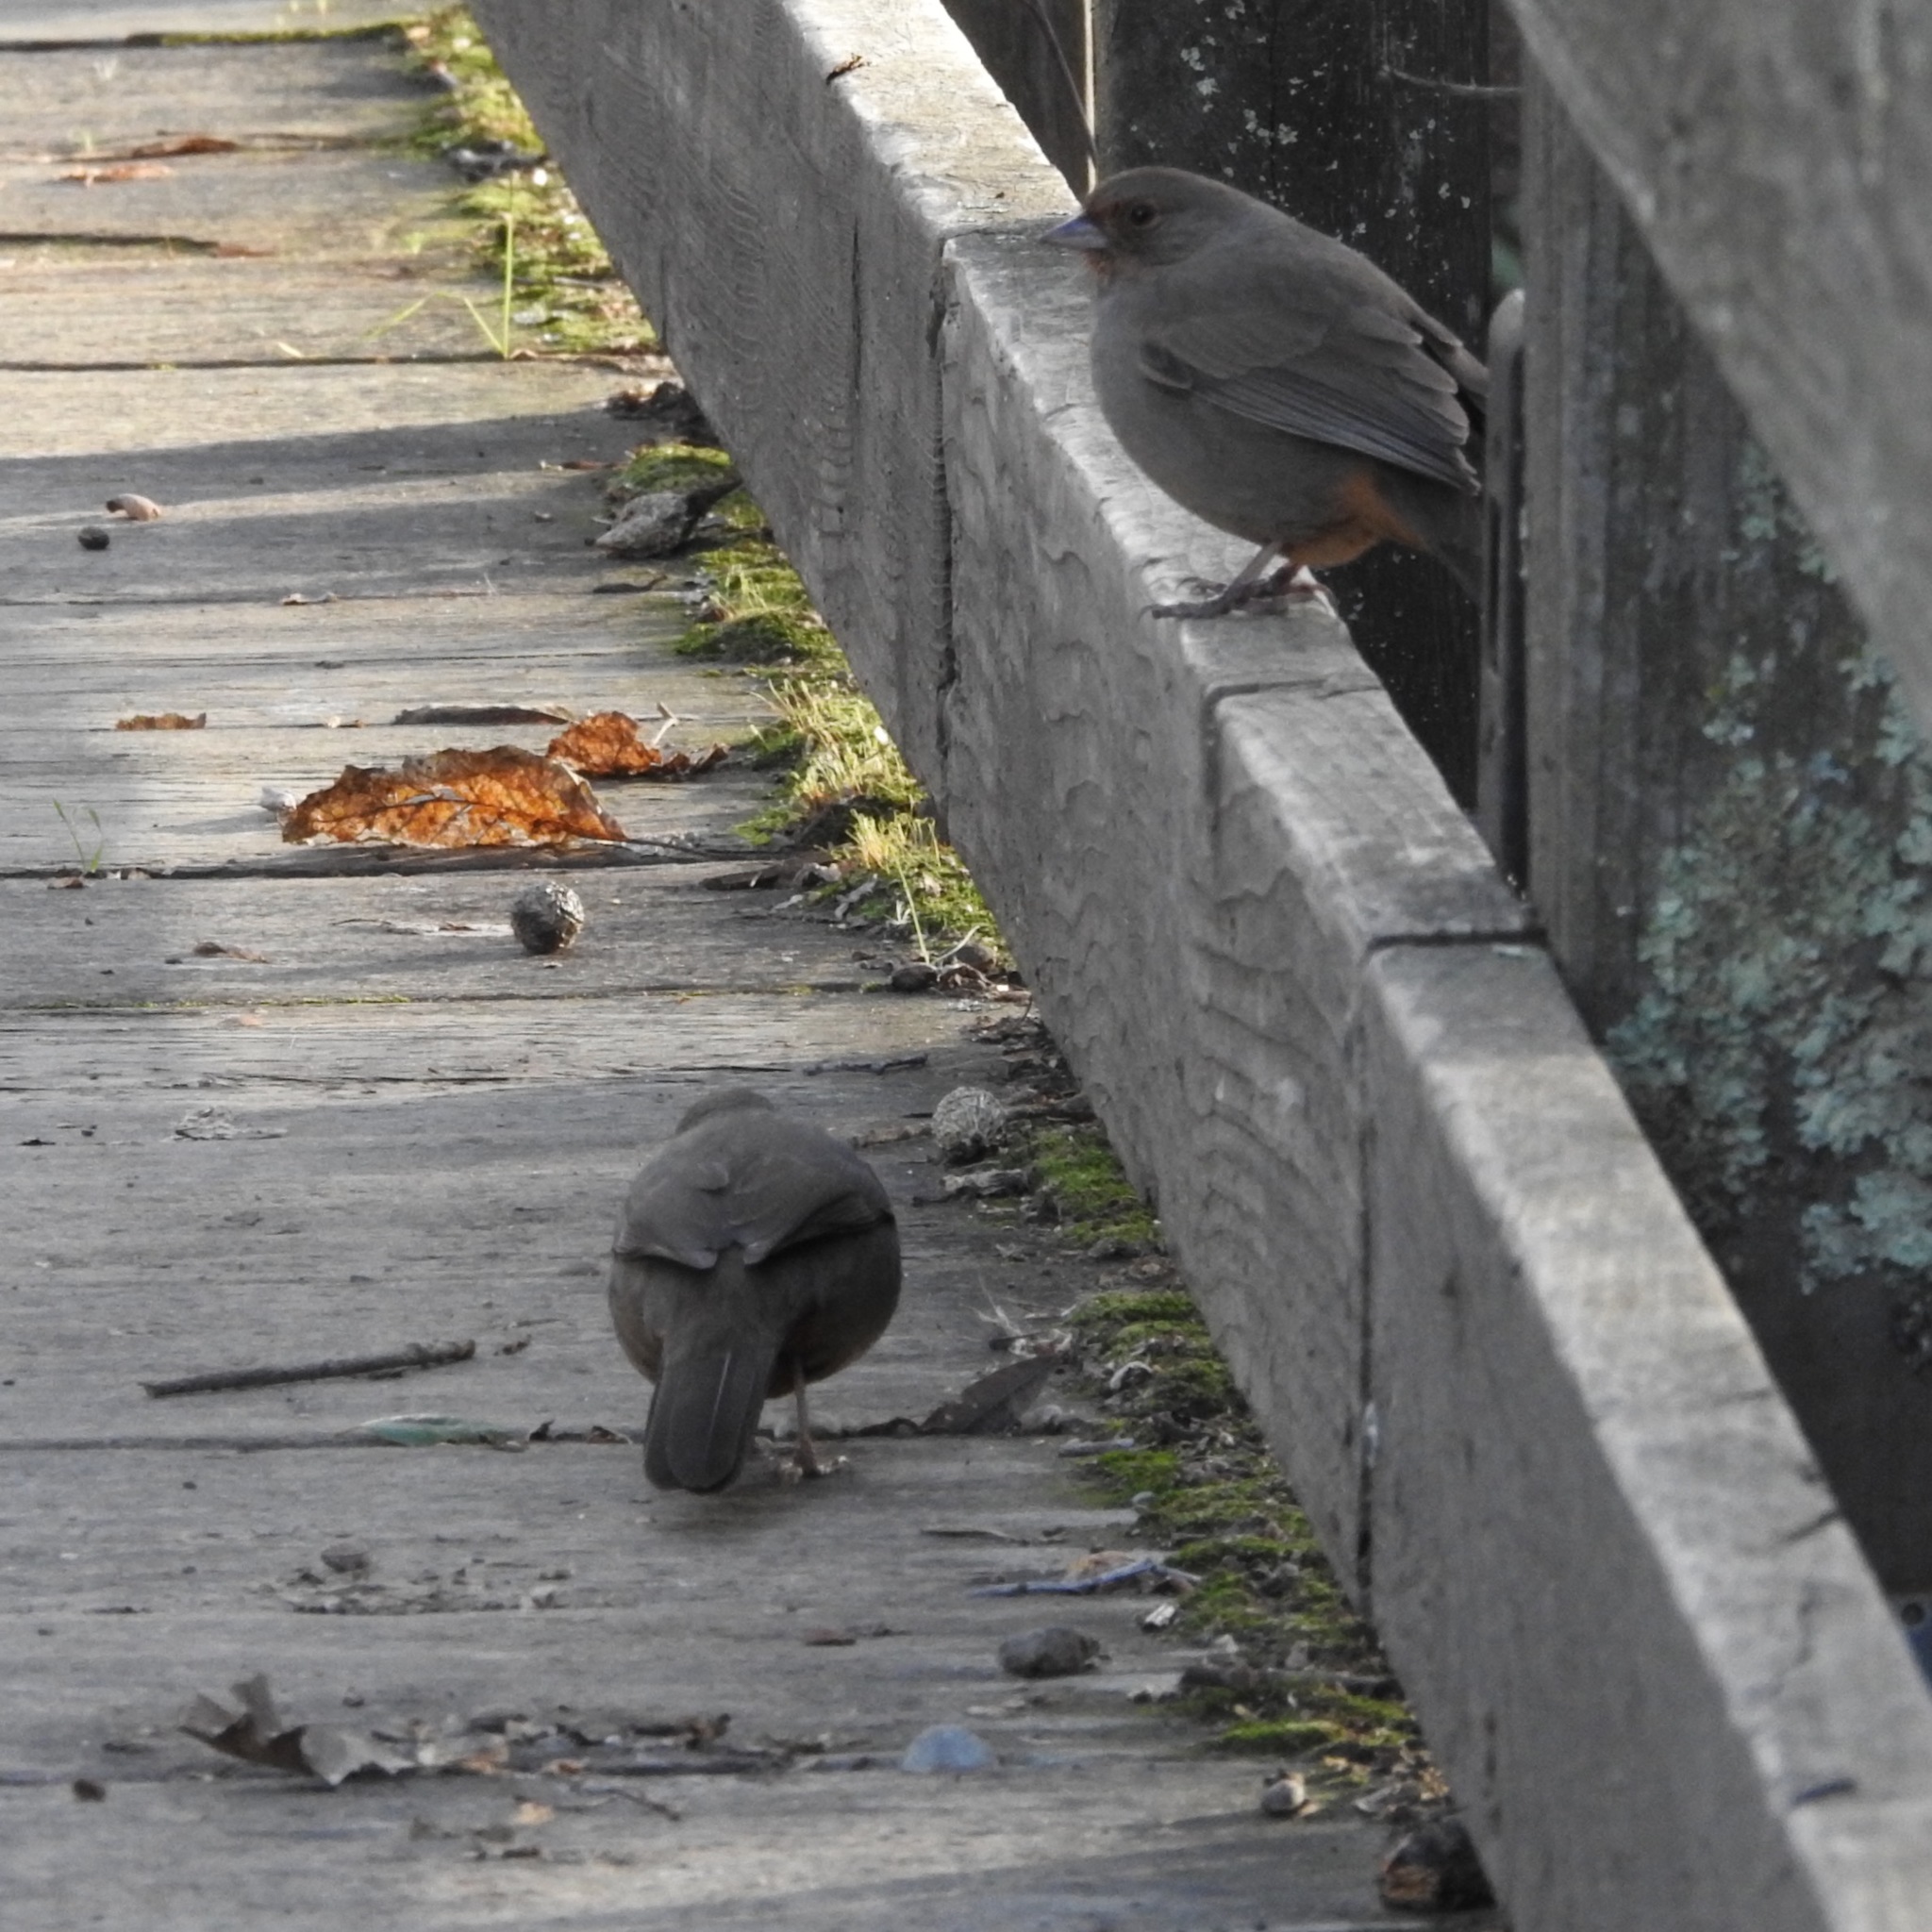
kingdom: Animalia
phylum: Chordata
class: Aves
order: Passeriformes
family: Passerellidae
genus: Melozone
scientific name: Melozone crissalis
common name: California towhee
